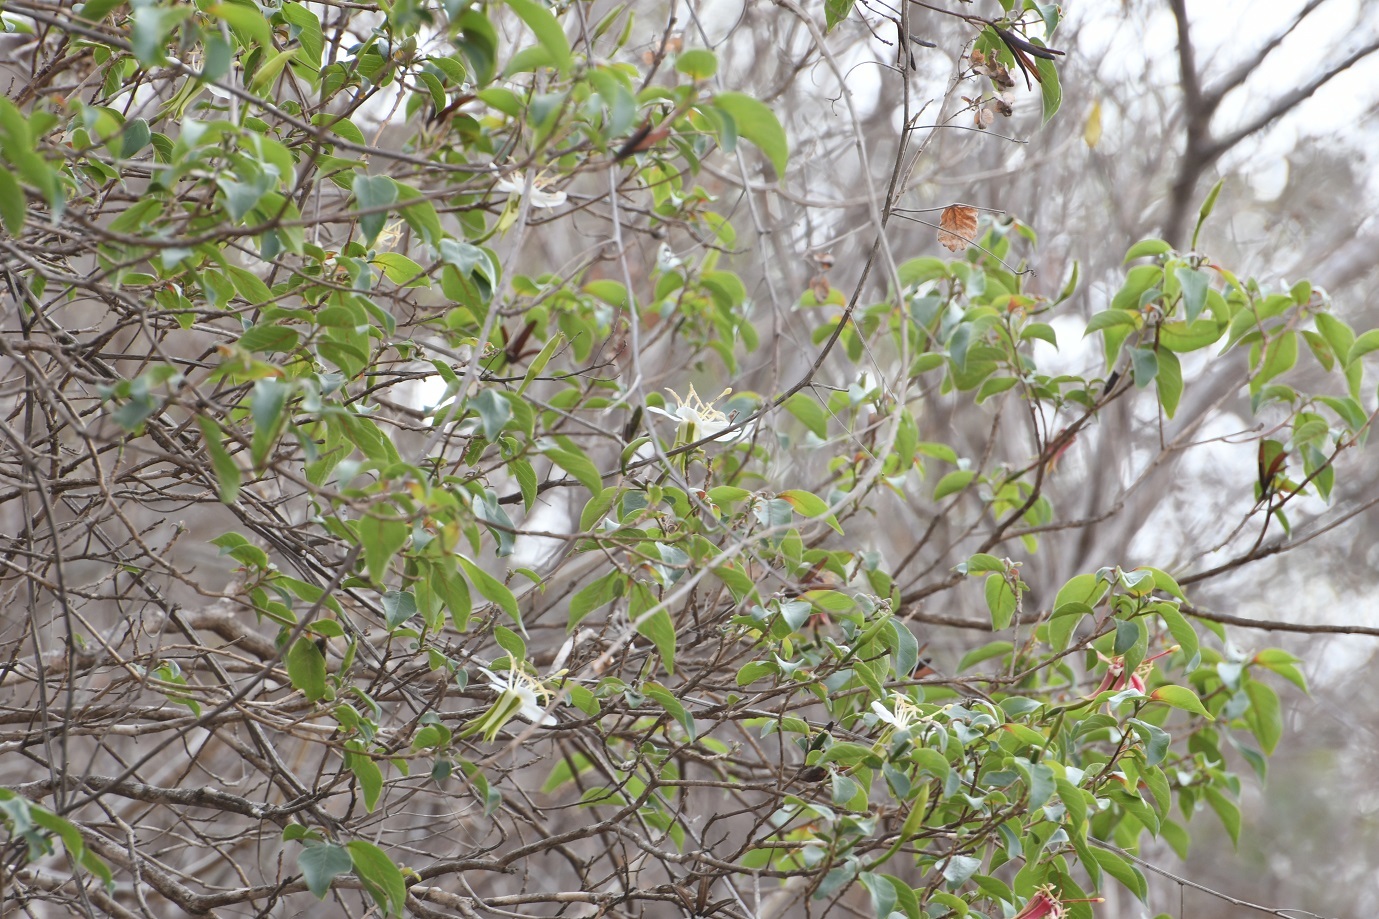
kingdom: Plantae
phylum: Tracheophyta
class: Magnoliopsida
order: Myrtales
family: Onagraceae
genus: Hauya
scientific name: Hauya elegans
